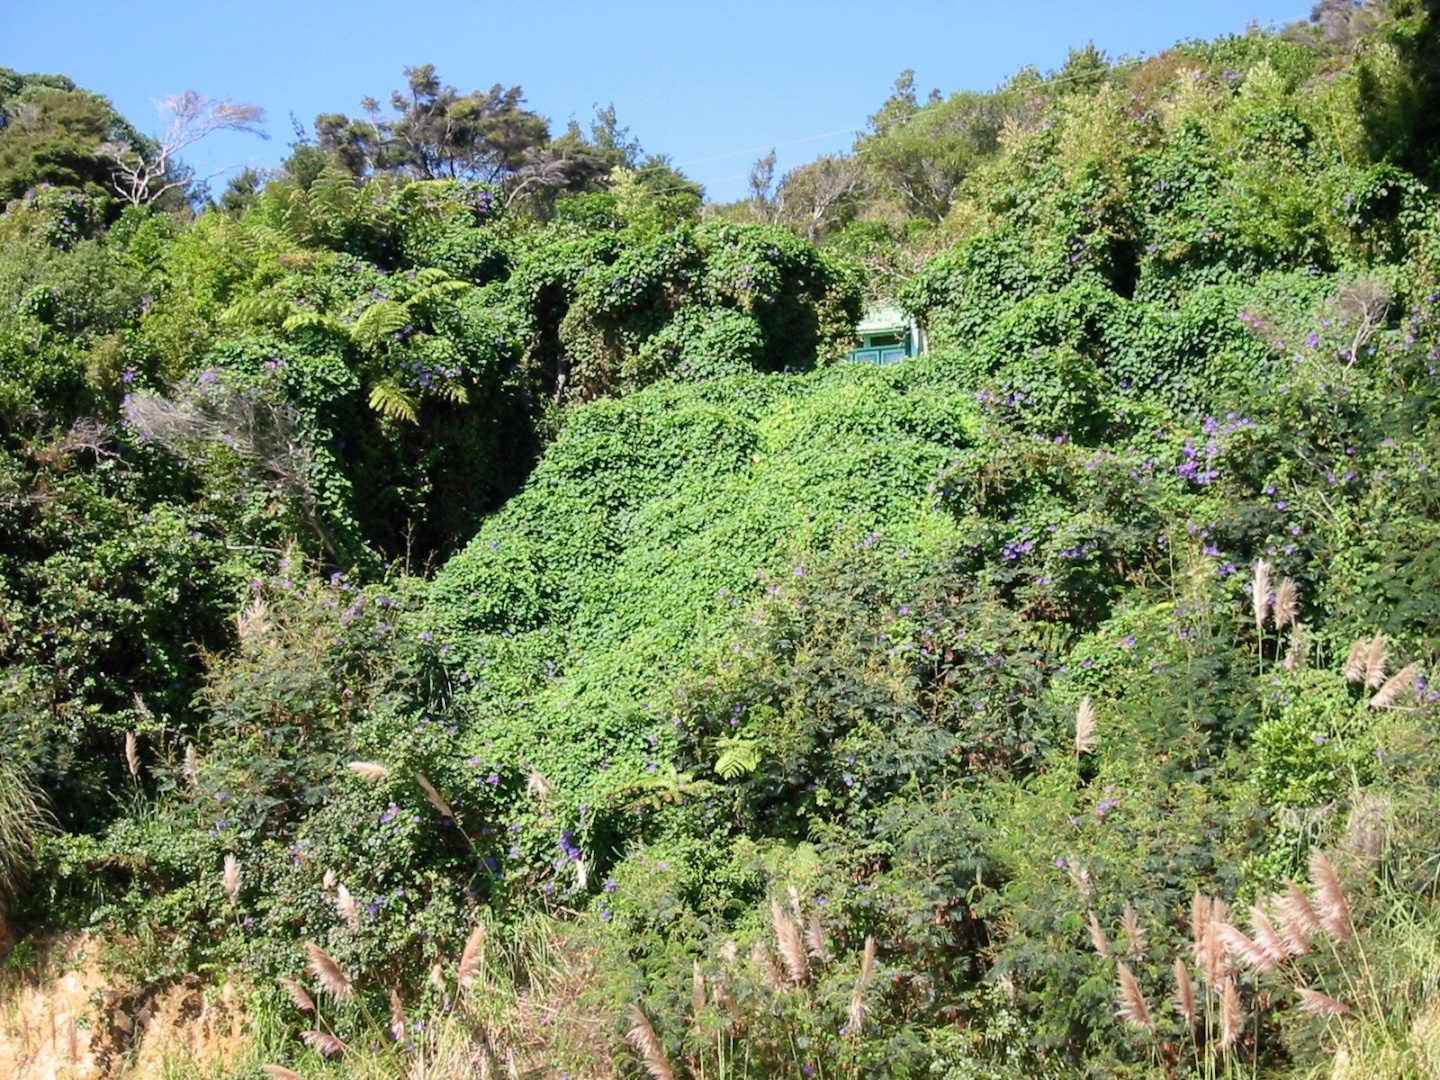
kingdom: Plantae
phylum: Tracheophyta
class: Magnoliopsida
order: Solanales
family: Convolvulaceae
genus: Ipomoea
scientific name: Ipomoea indica
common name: Blue dawnflower
